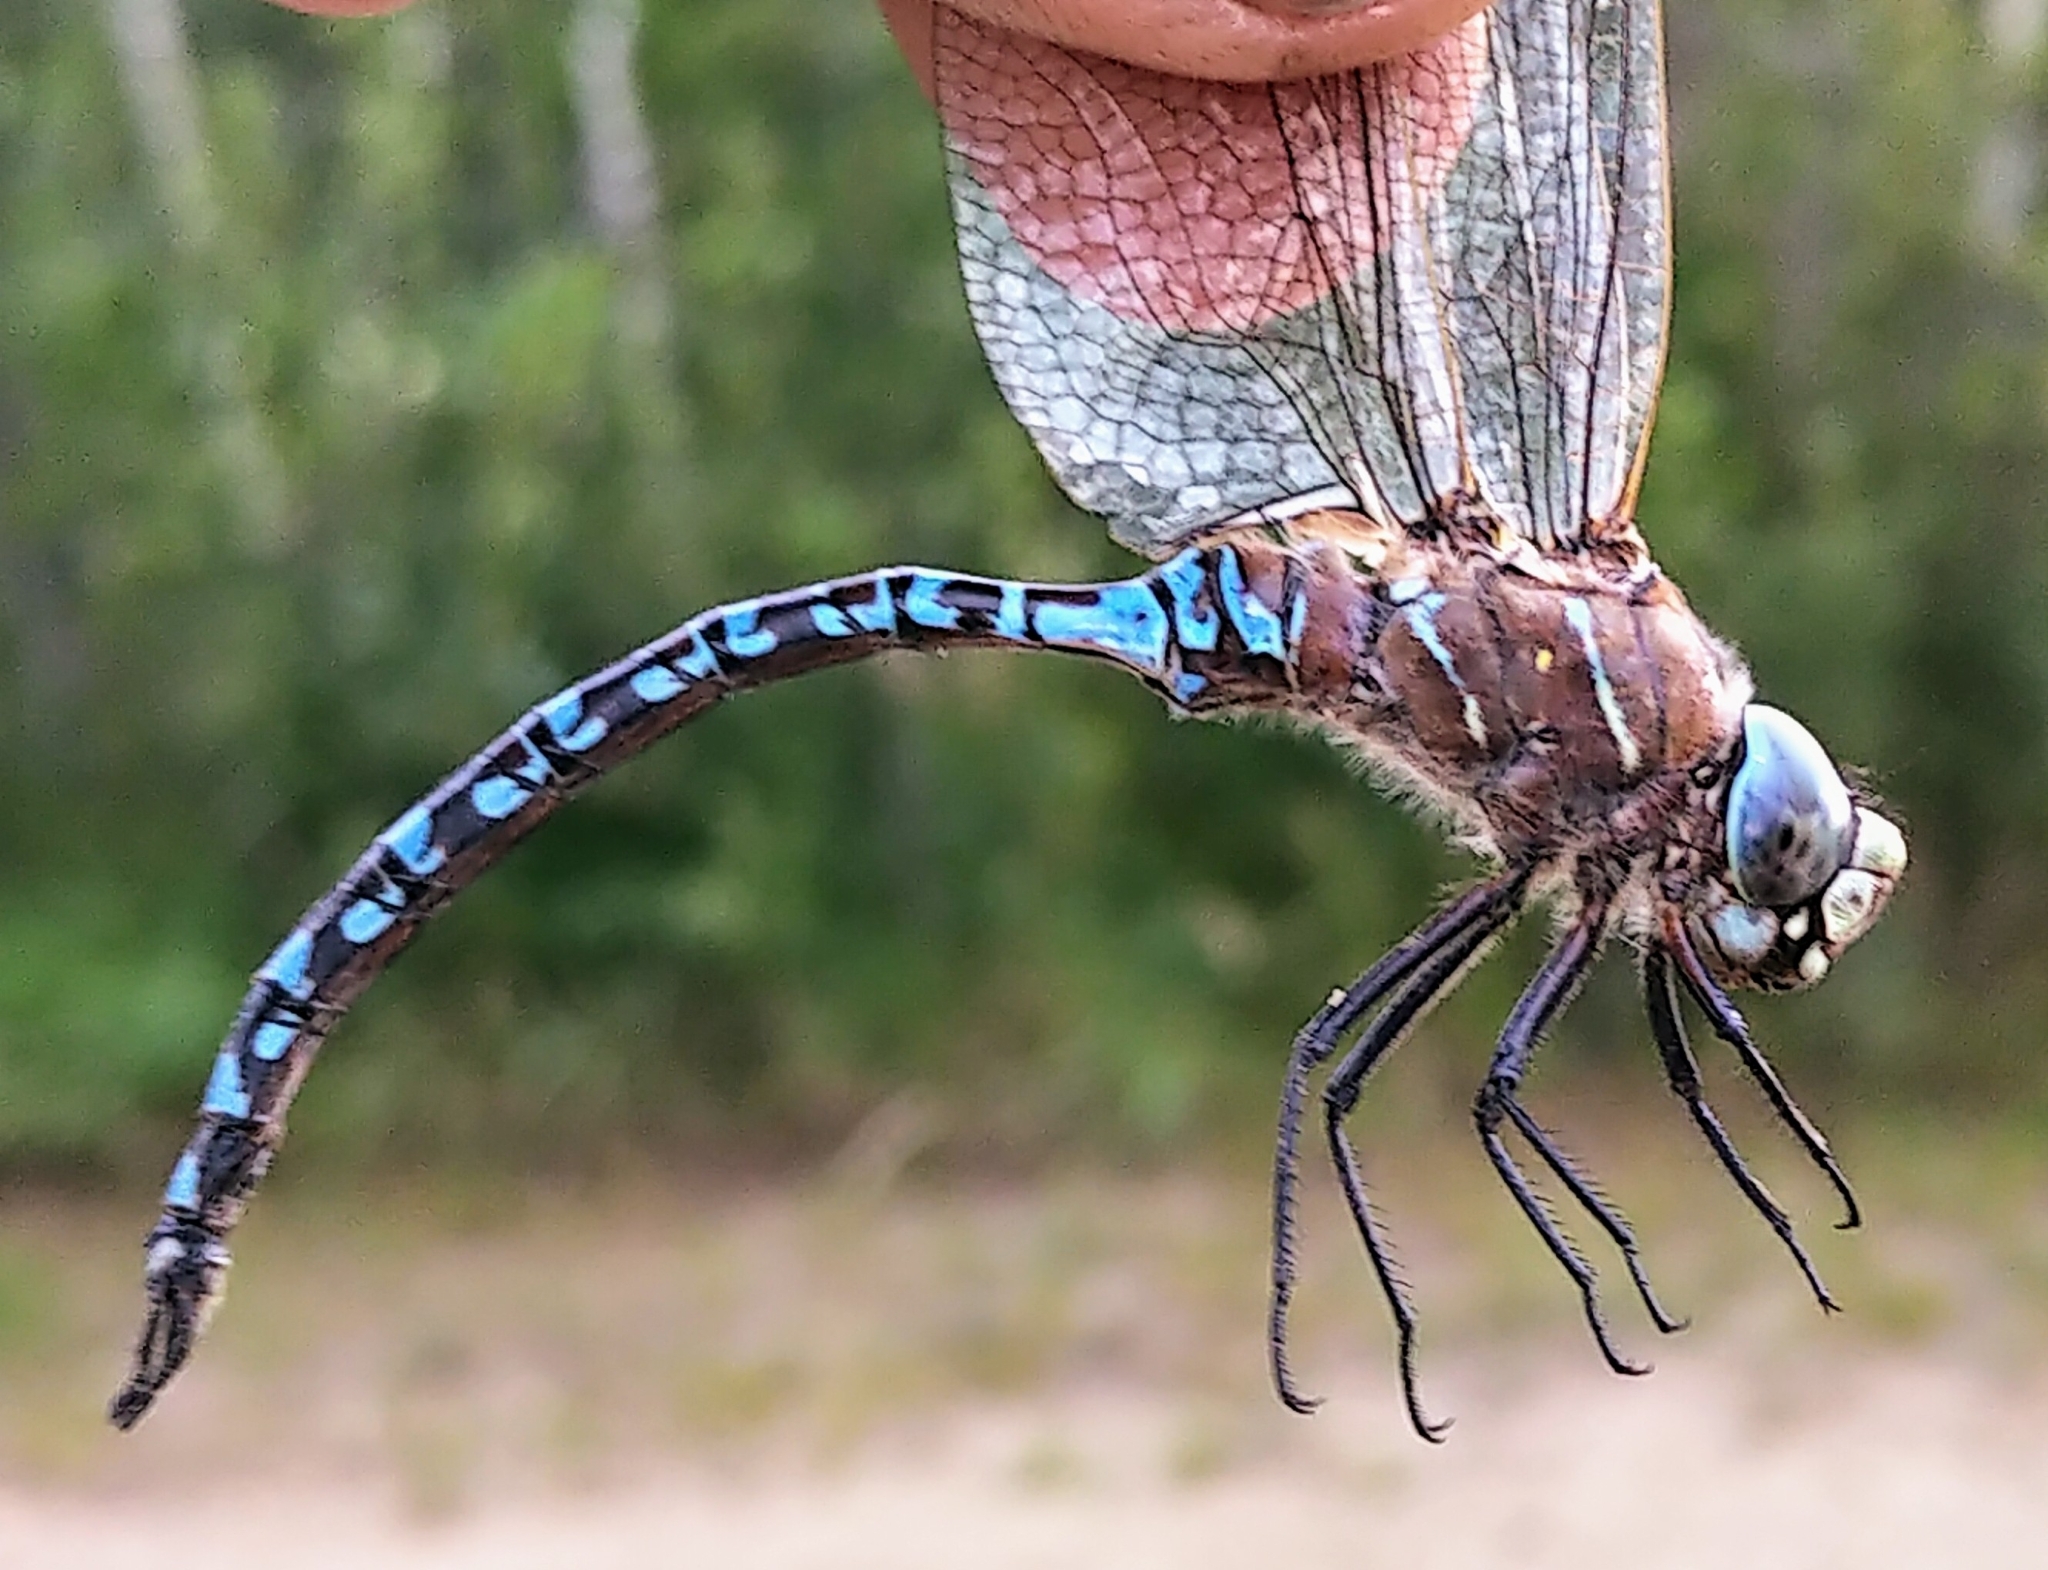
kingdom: Animalia
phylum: Arthropoda
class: Insecta
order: Odonata
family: Aeshnidae
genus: Aeshna
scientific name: Aeshna interrupta
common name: Variable darner
